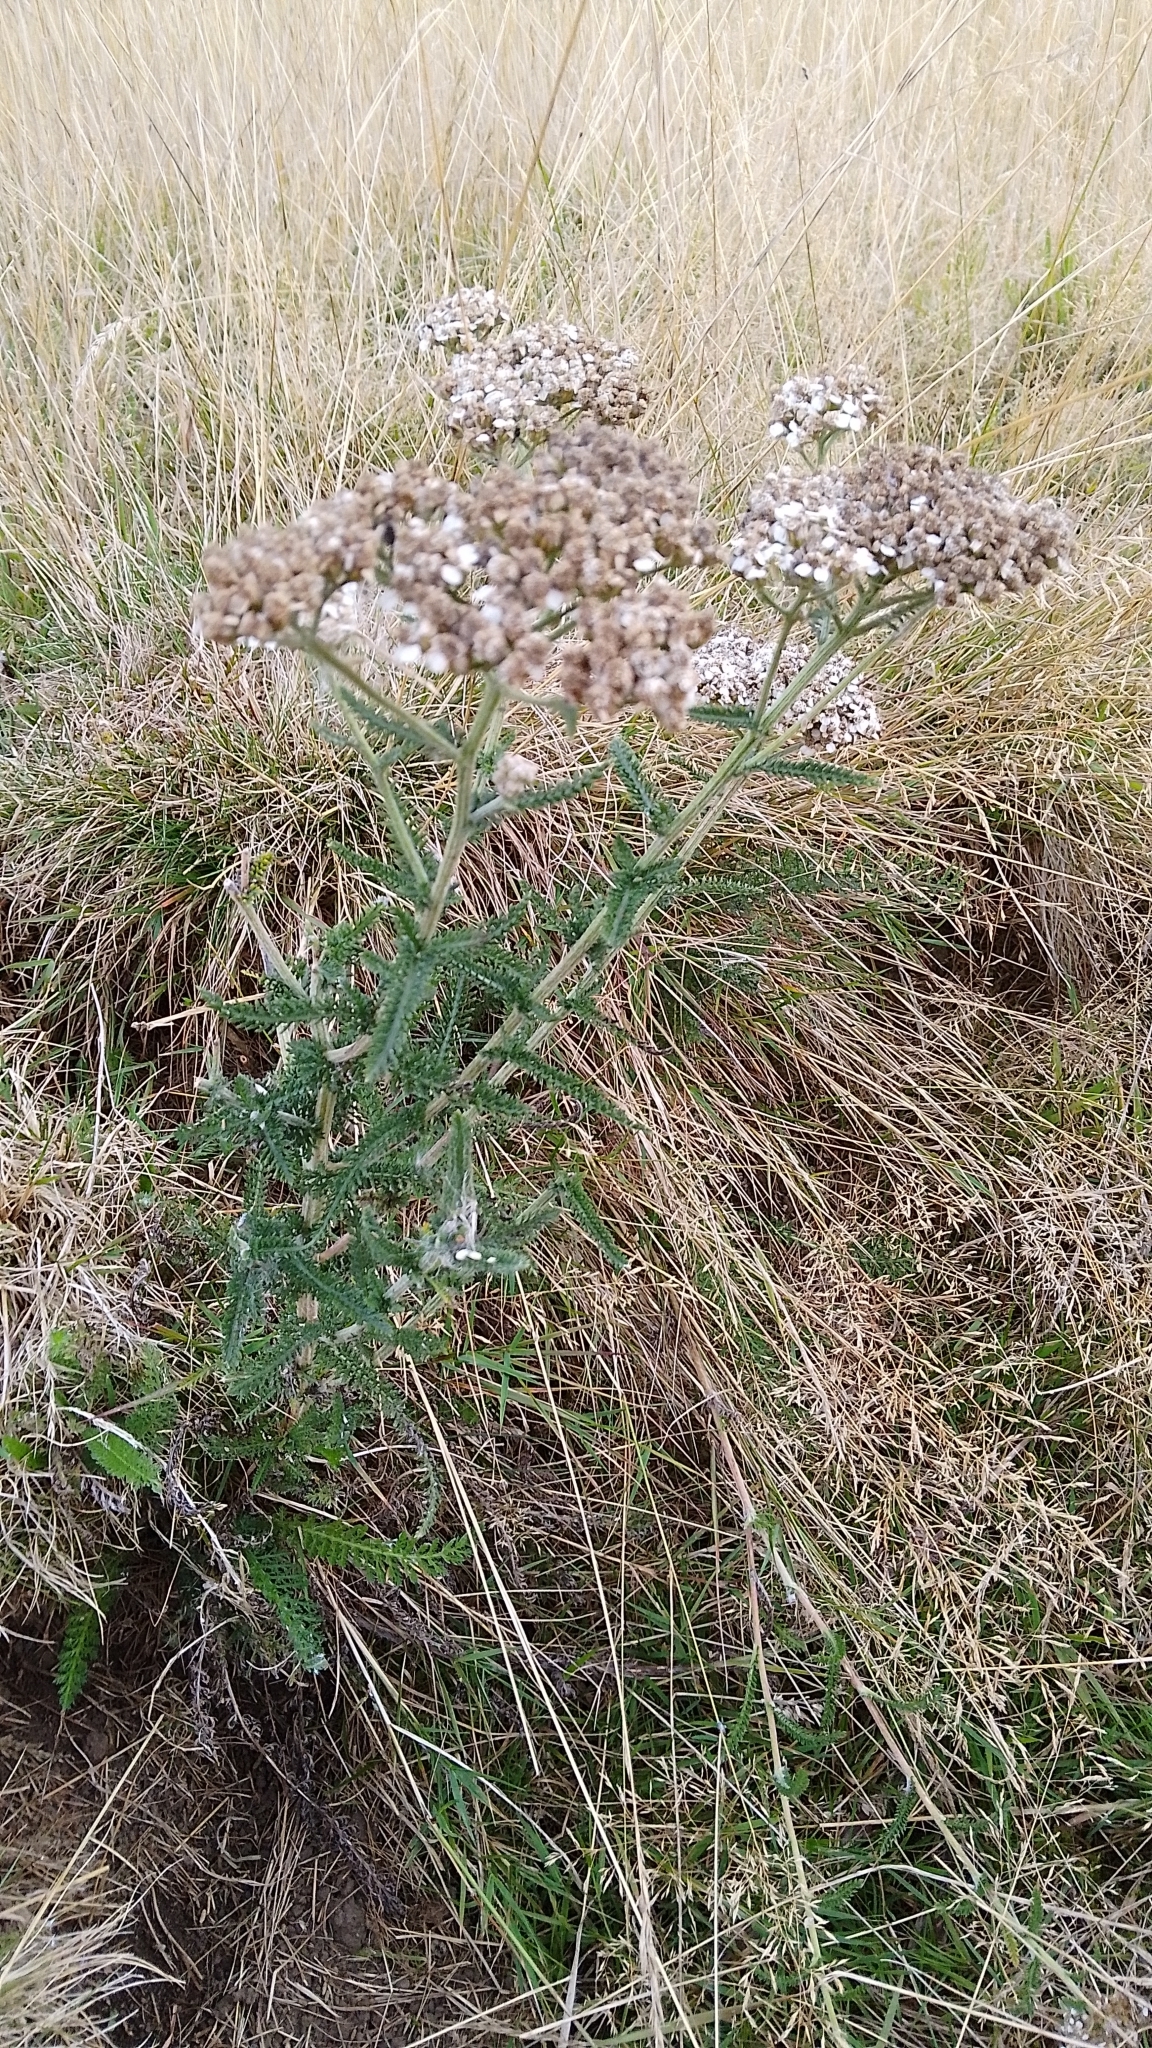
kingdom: Plantae
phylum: Tracheophyta
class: Magnoliopsida
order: Asterales
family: Asteraceae
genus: Achillea
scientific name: Achillea millefolium
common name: Yarrow
